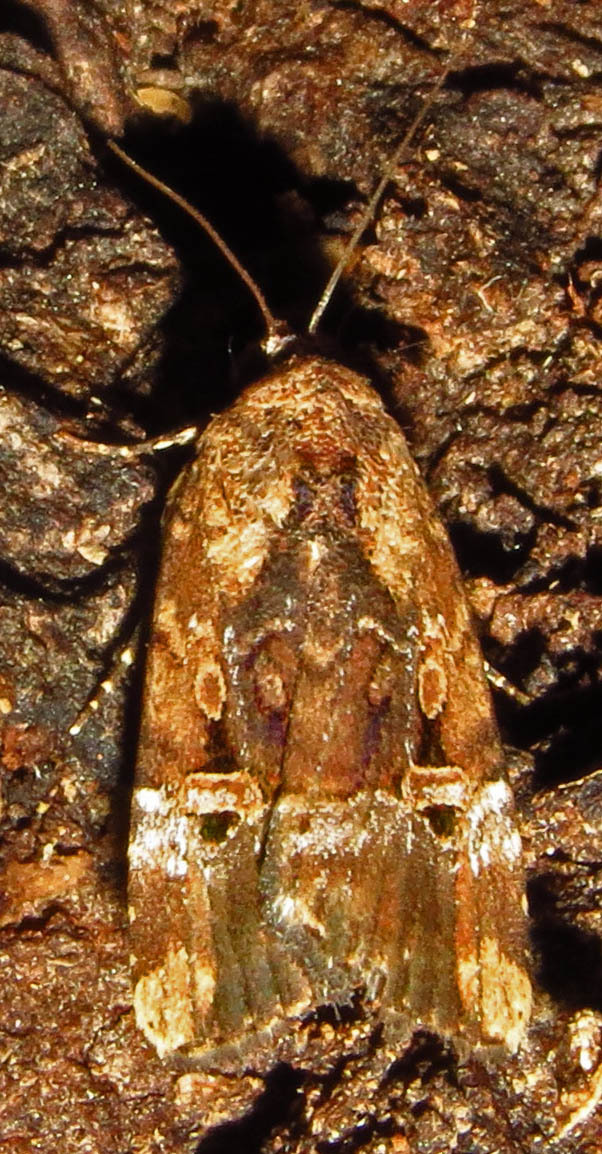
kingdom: Animalia
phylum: Arthropoda
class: Insecta
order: Lepidoptera
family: Noctuidae
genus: Elaphria
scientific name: Elaphria chalcedonia
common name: Chalcedony midget
